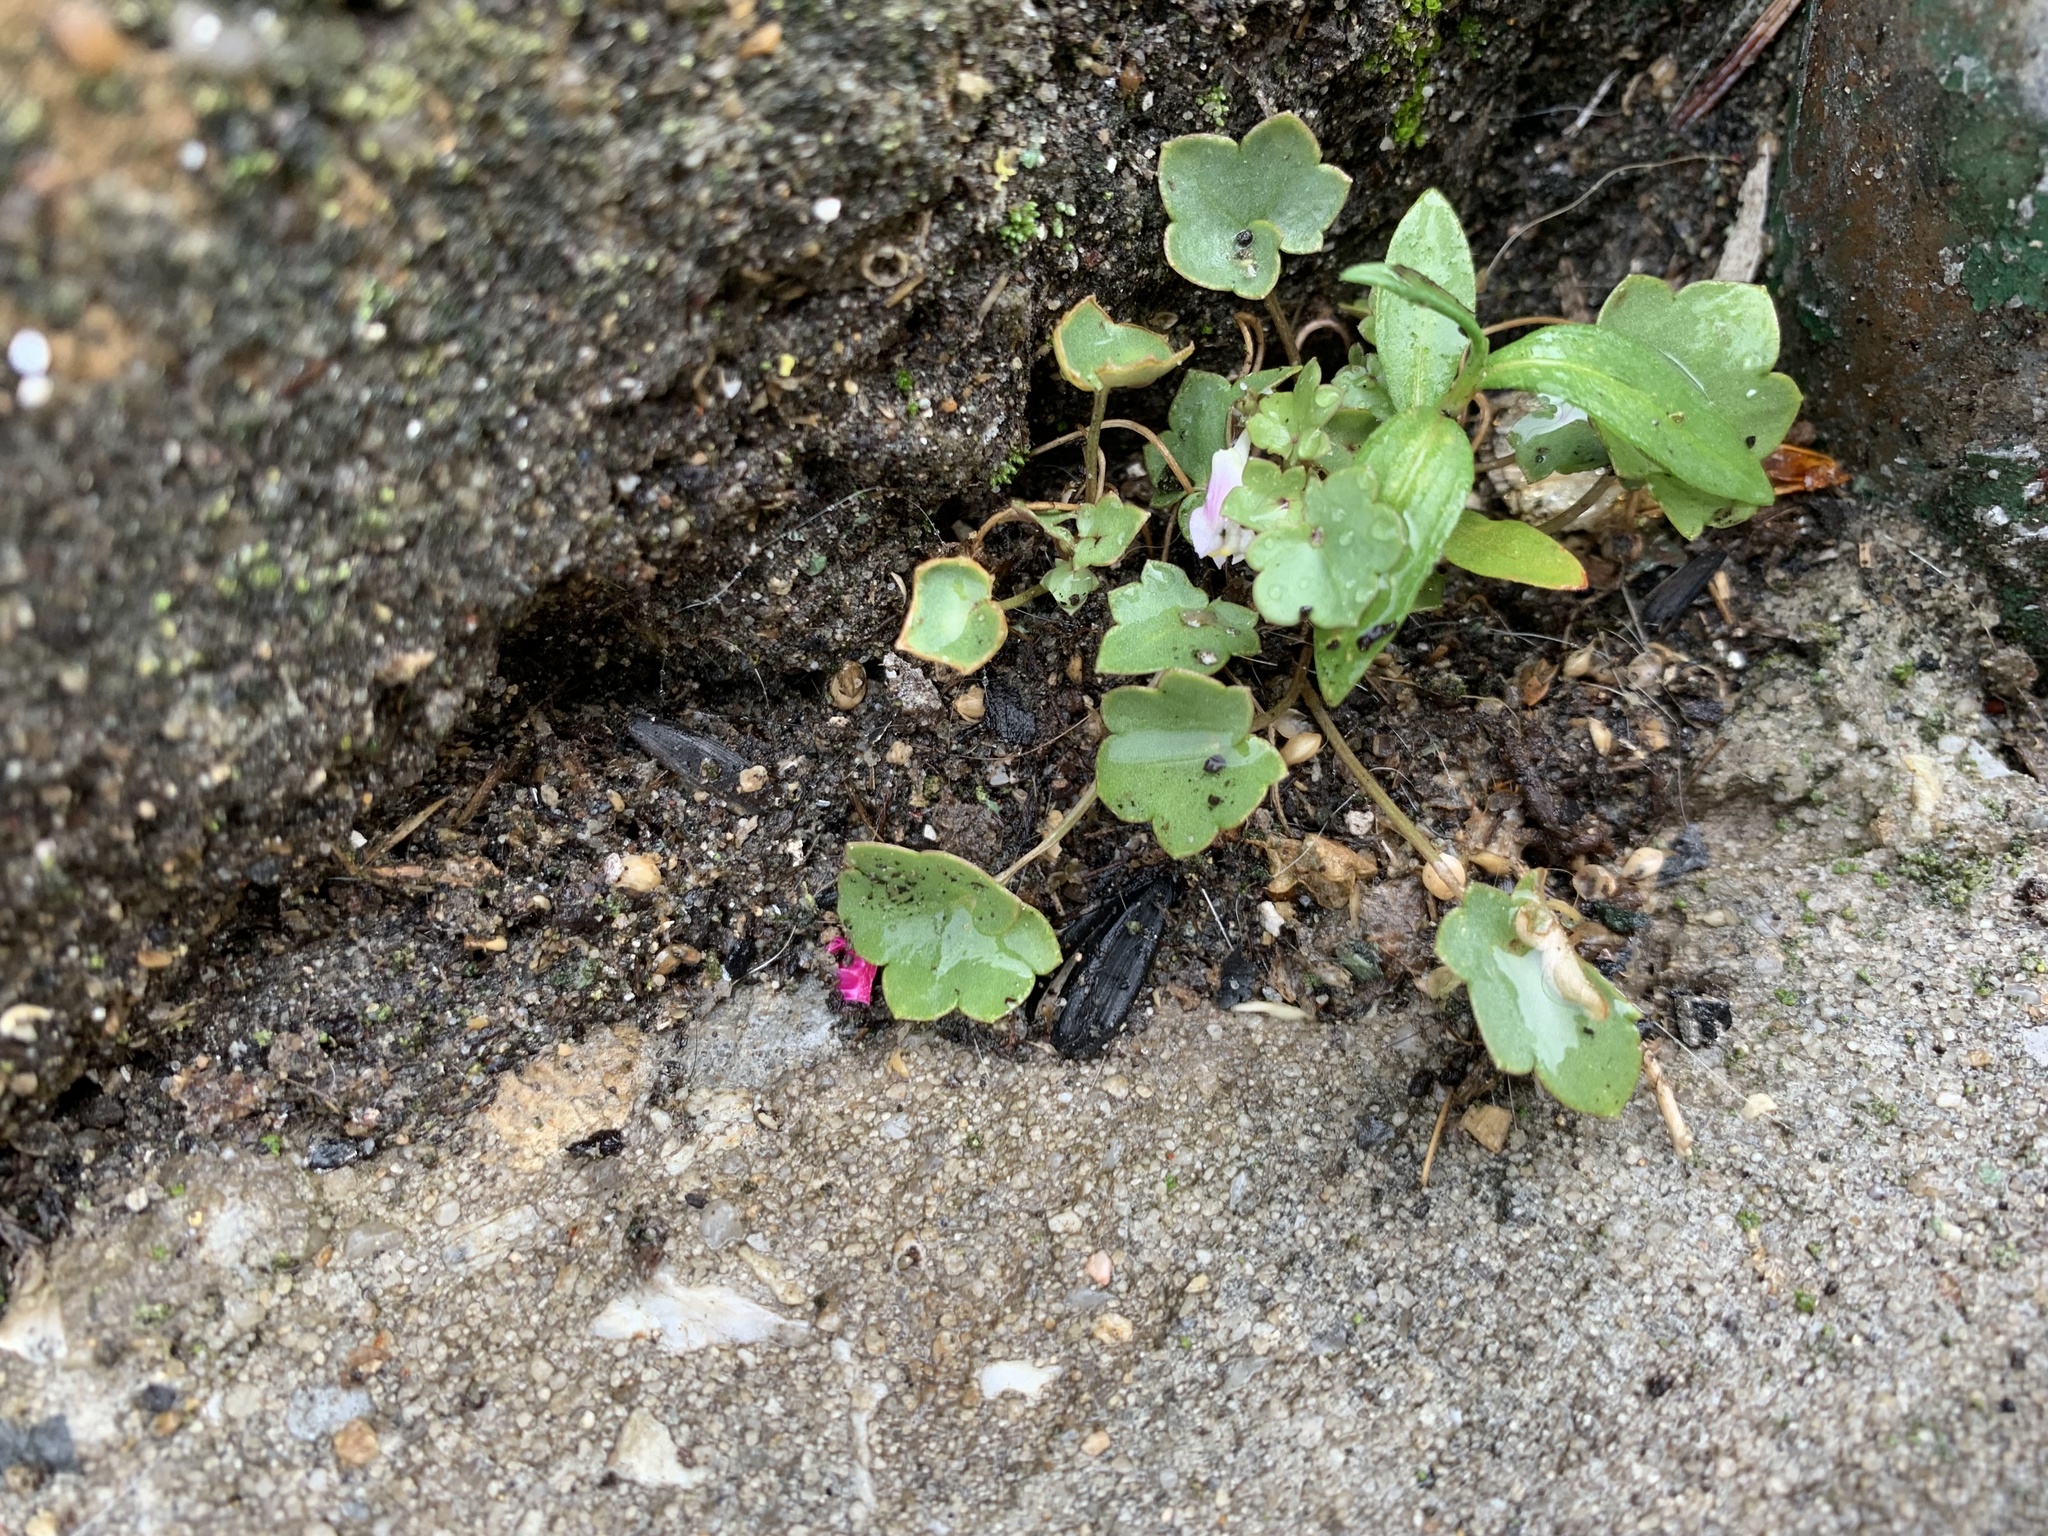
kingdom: Plantae
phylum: Tracheophyta
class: Magnoliopsida
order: Lamiales
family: Plantaginaceae
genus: Cymbalaria
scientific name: Cymbalaria muralis
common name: Ivy-leaved toadflax
